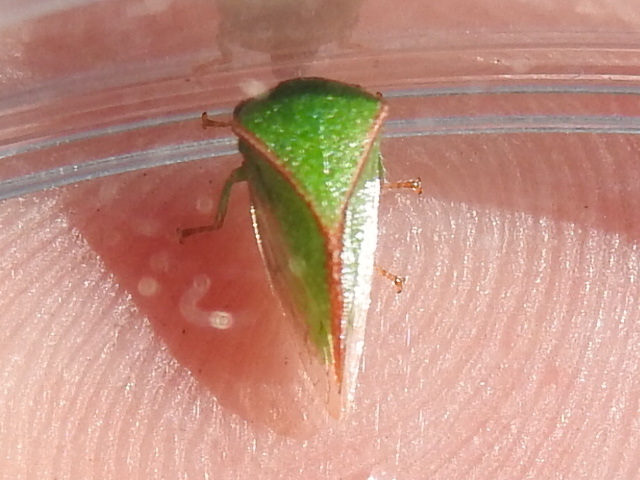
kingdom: Animalia
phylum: Arthropoda
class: Insecta
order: Hemiptera
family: Membracidae
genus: Spissistilus
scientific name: Spissistilus festina
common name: Membracid bug
